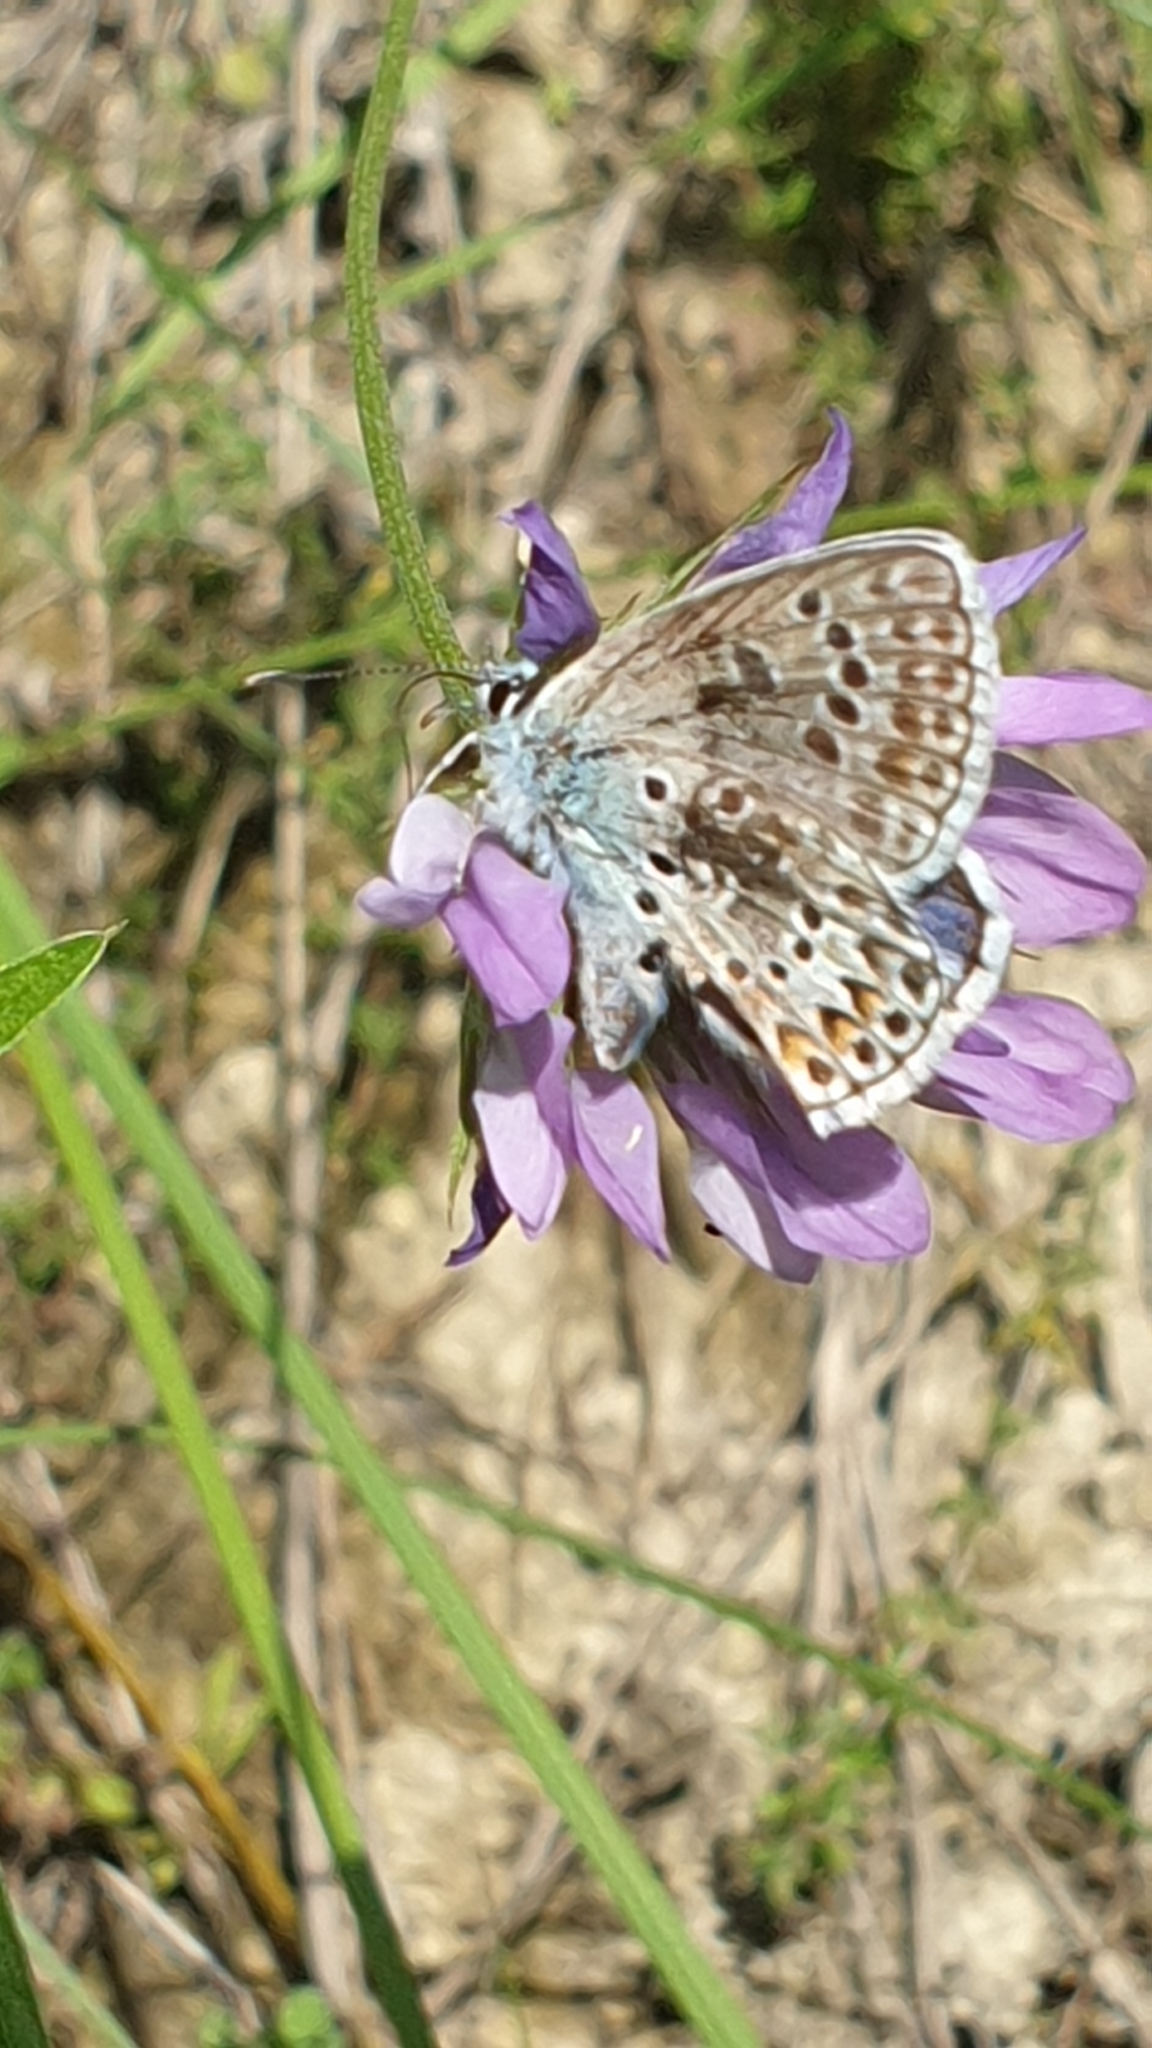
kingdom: Animalia
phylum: Arthropoda
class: Insecta
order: Lepidoptera
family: Lycaenidae
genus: Plebicula
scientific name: Plebicula escheri
